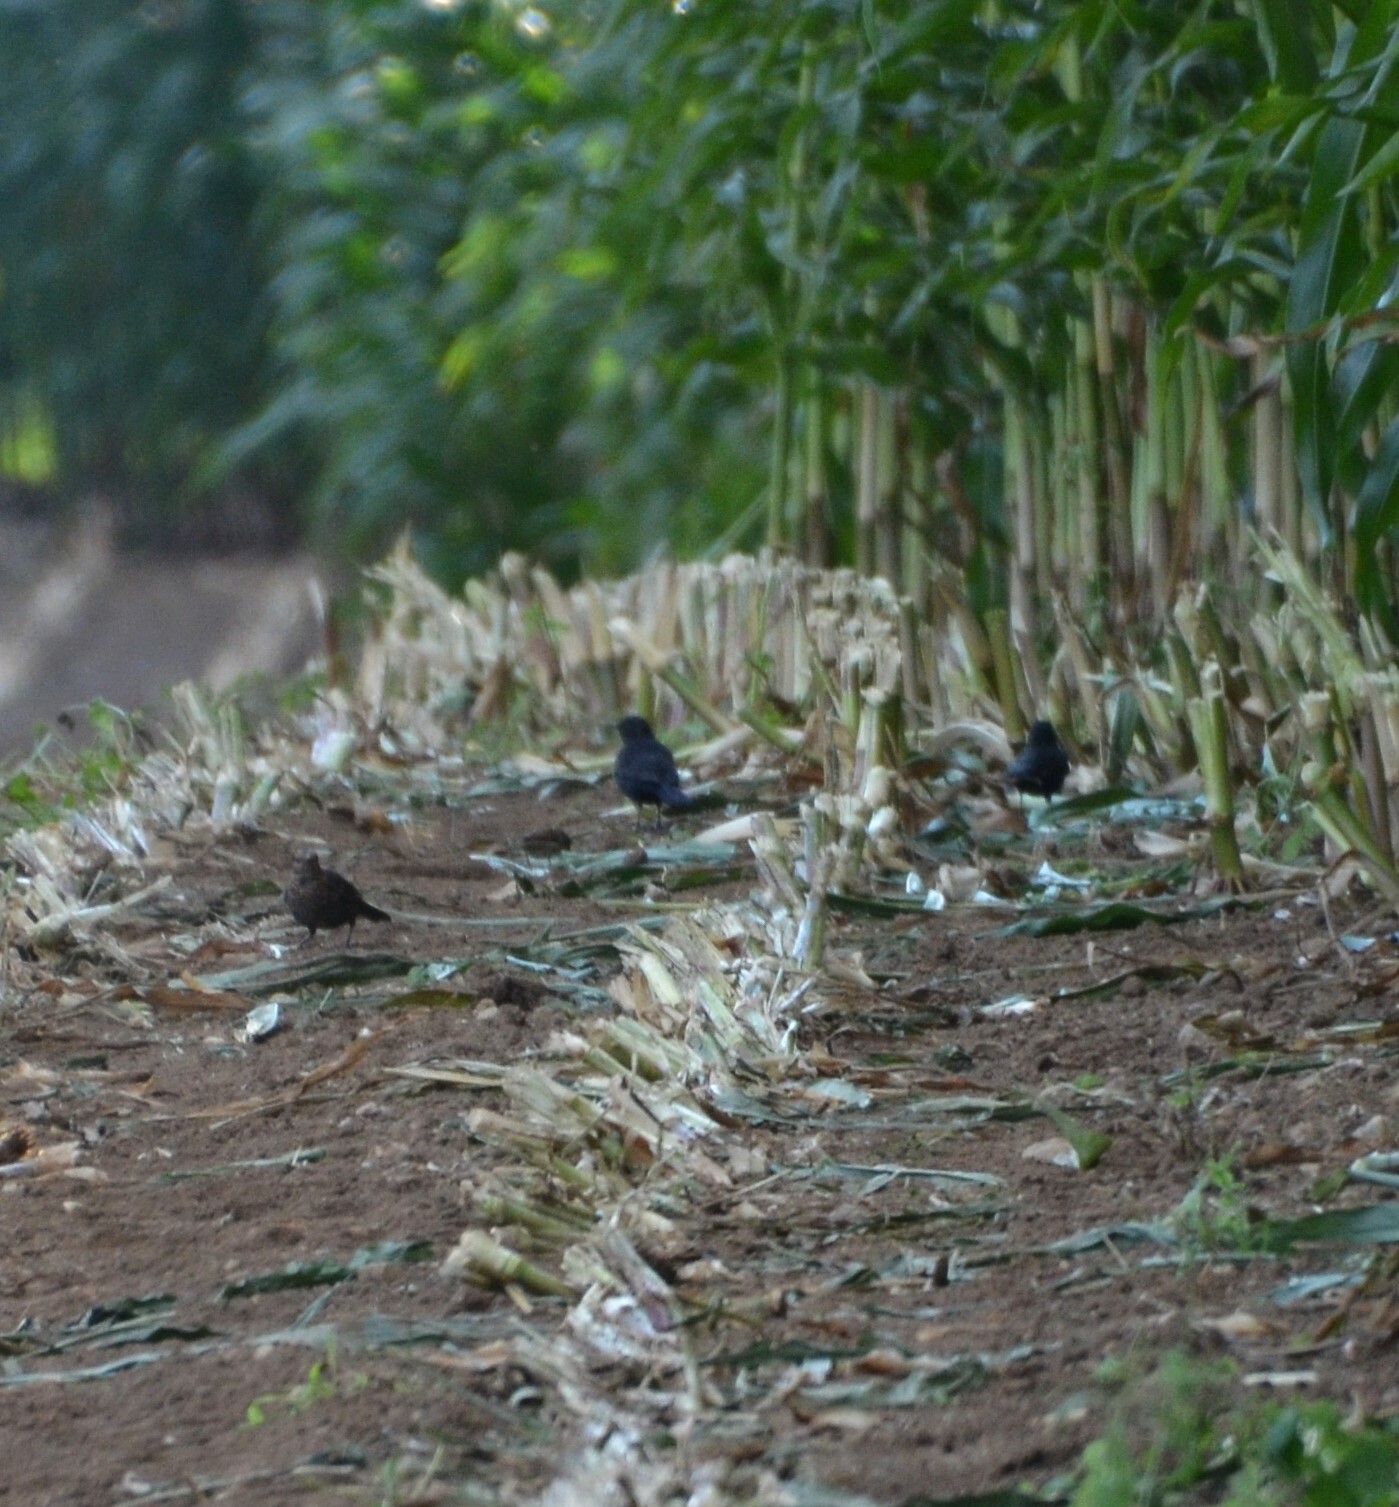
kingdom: Animalia
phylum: Chordata
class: Aves
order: Passeriformes
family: Turdidae
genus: Turdus
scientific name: Turdus merula
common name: Common blackbird
